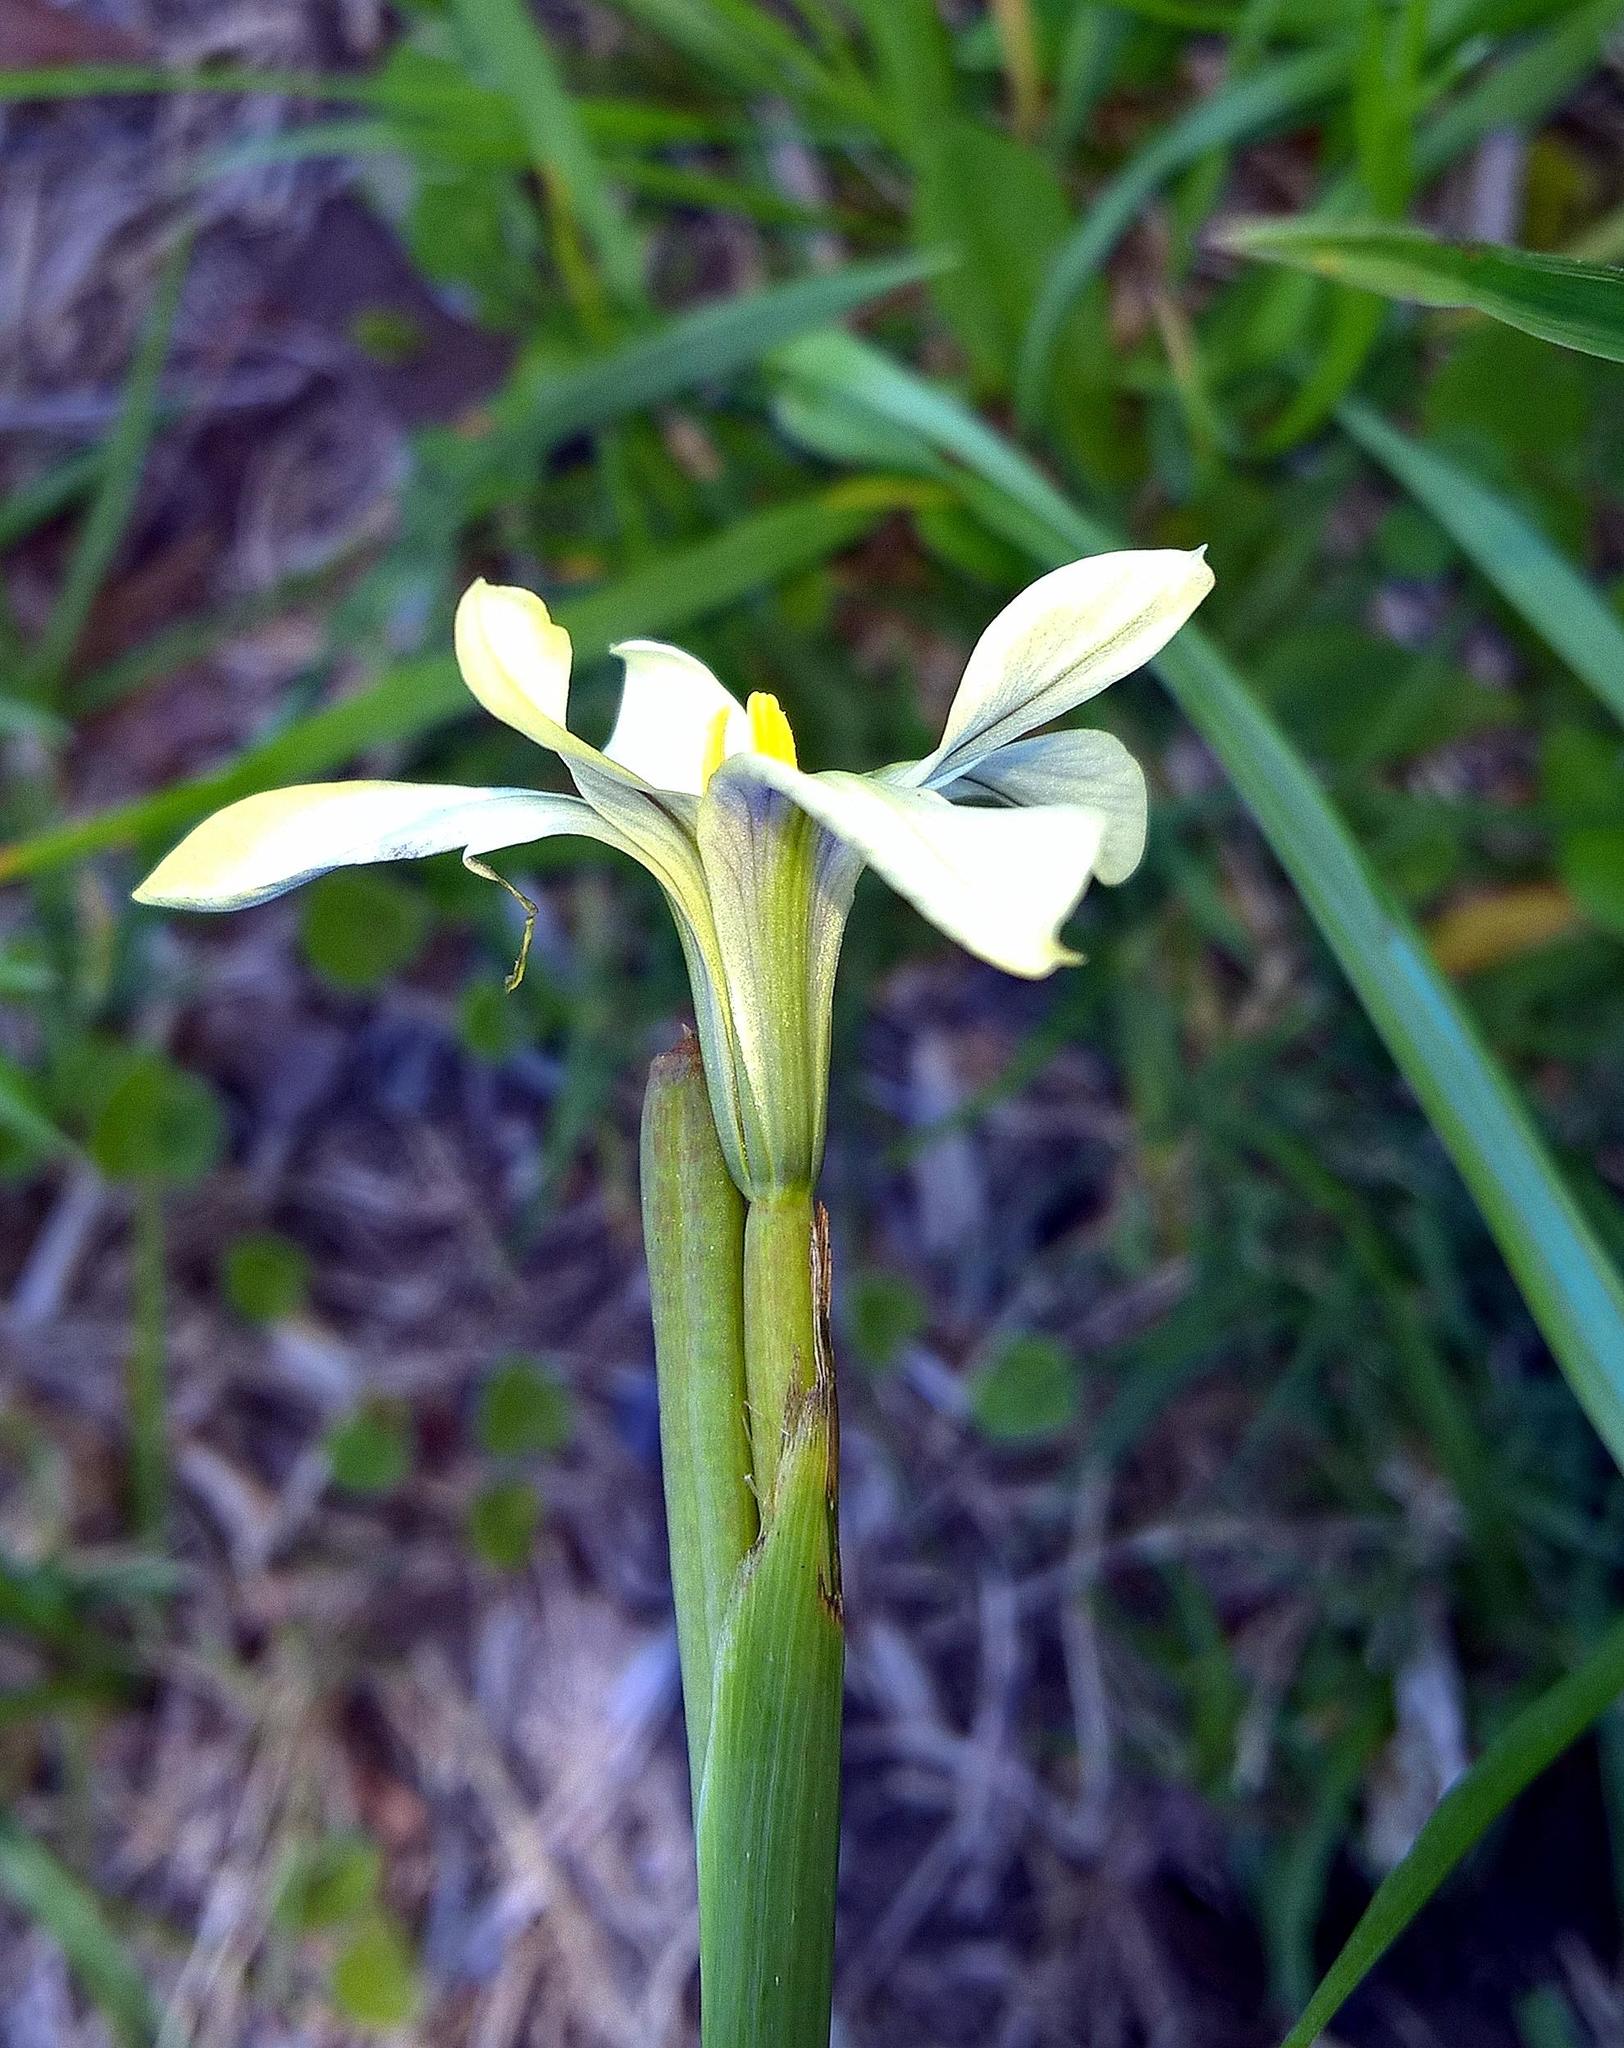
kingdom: Plantae
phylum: Tracheophyta
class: Liliopsida
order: Asparagales
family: Iridaceae
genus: Moraea
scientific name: Moraea bulbillifera
